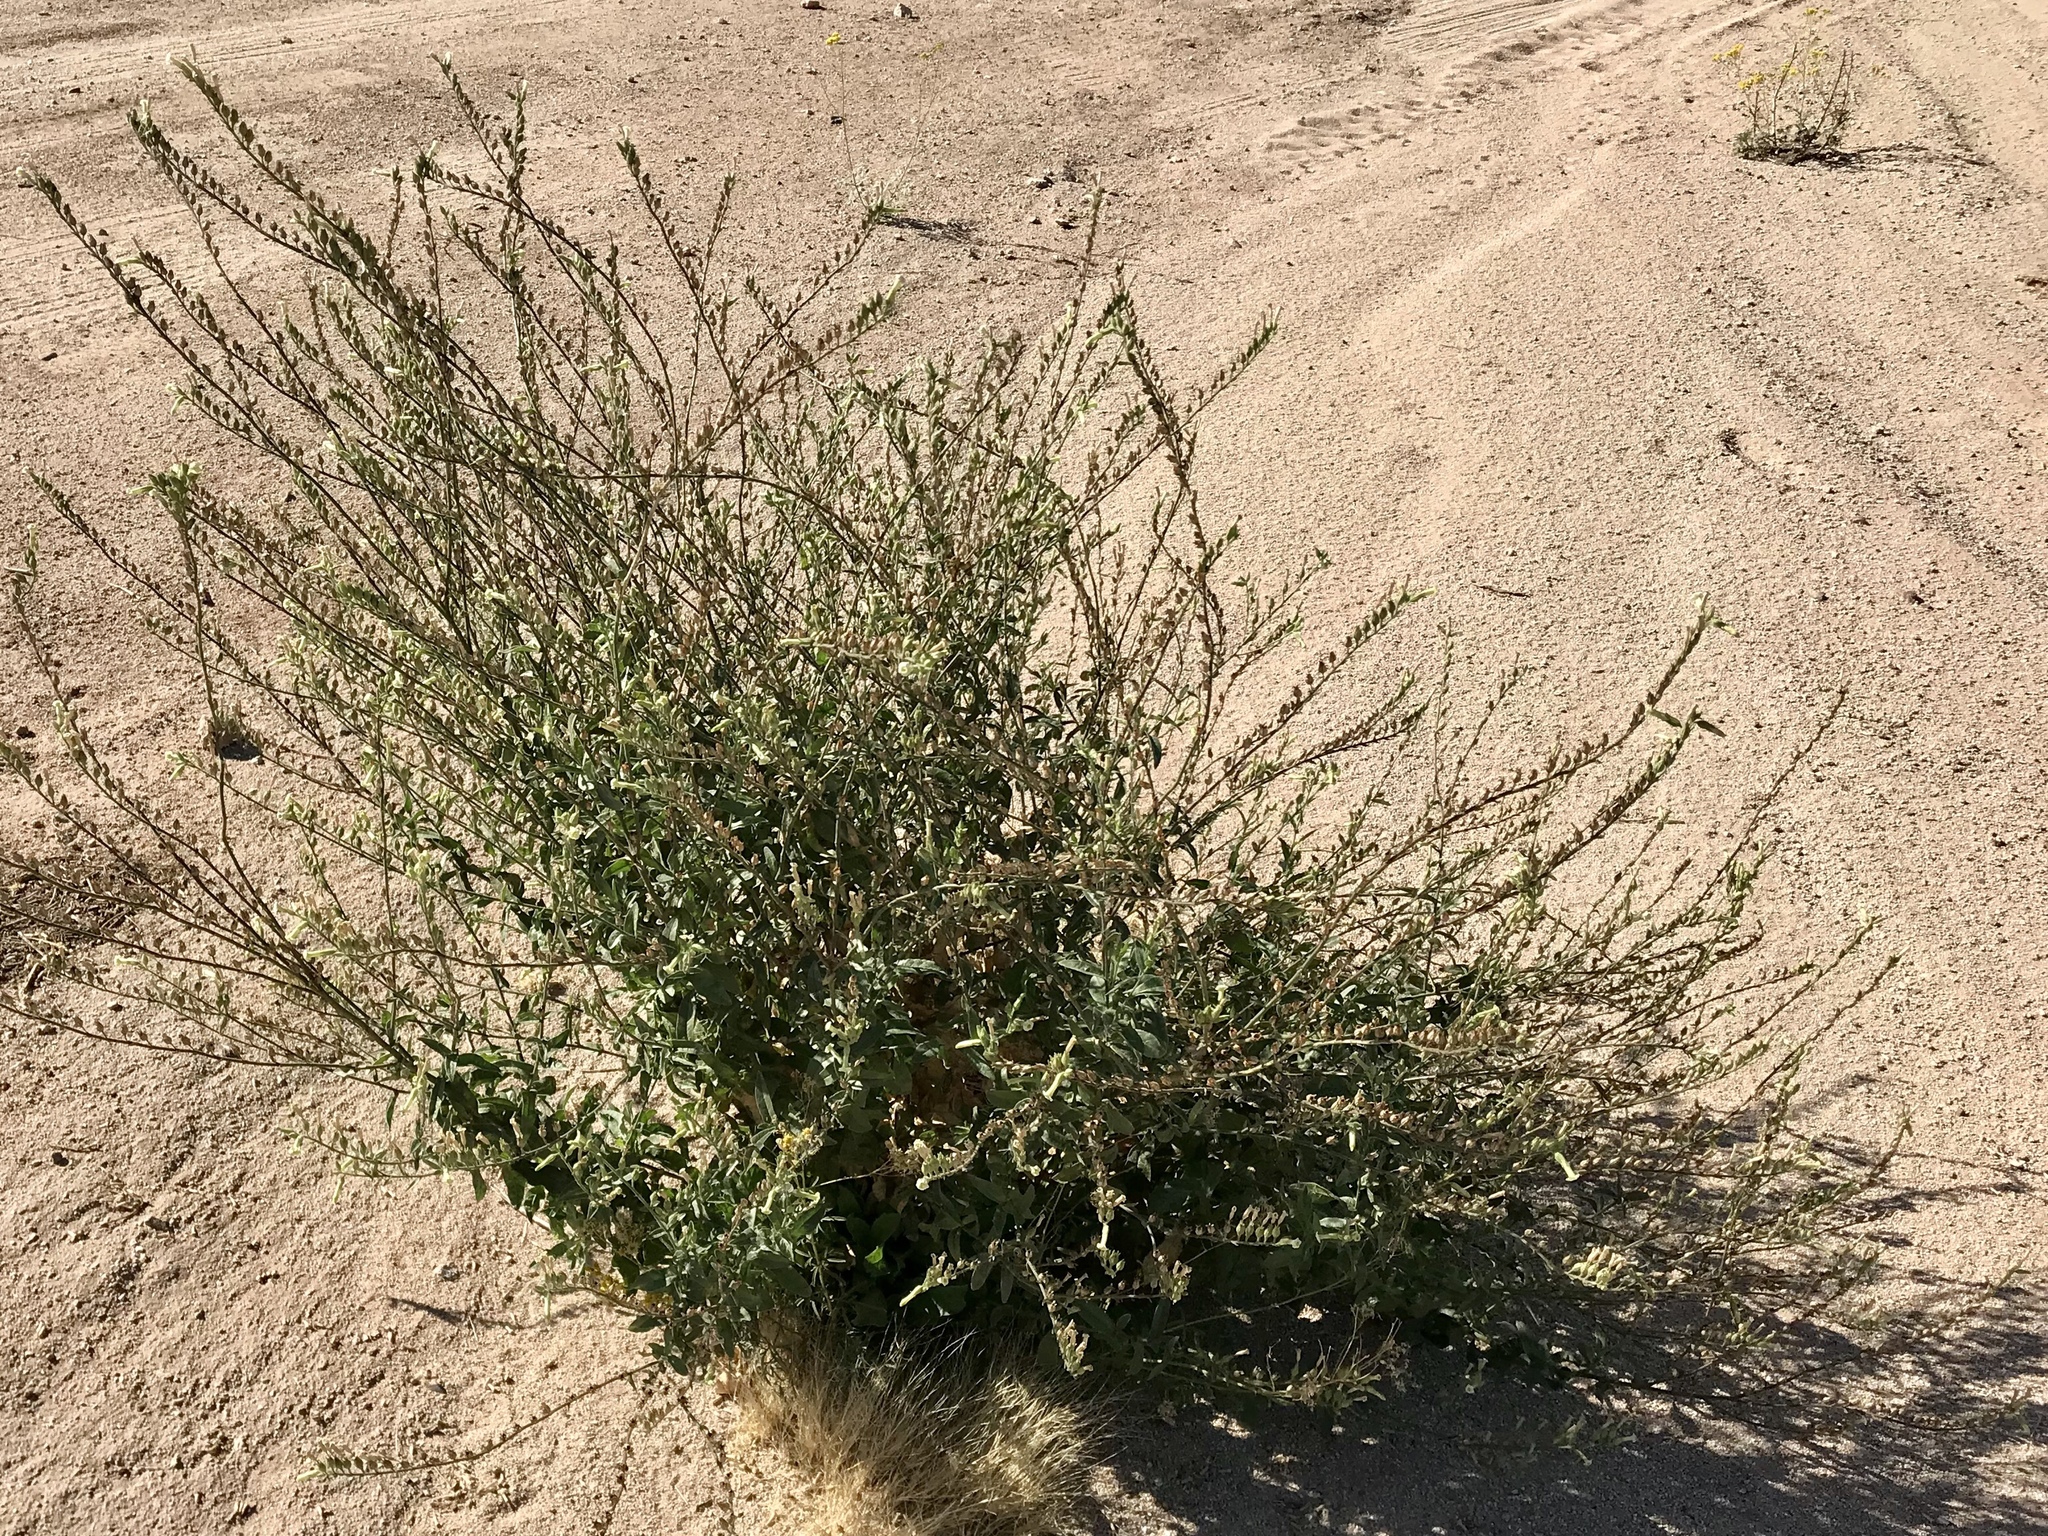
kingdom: Plantae
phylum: Tracheophyta
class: Magnoliopsida
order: Solanales
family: Solanaceae
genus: Nicotiana
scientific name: Nicotiana obtusifolia
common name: Desert tobacco
